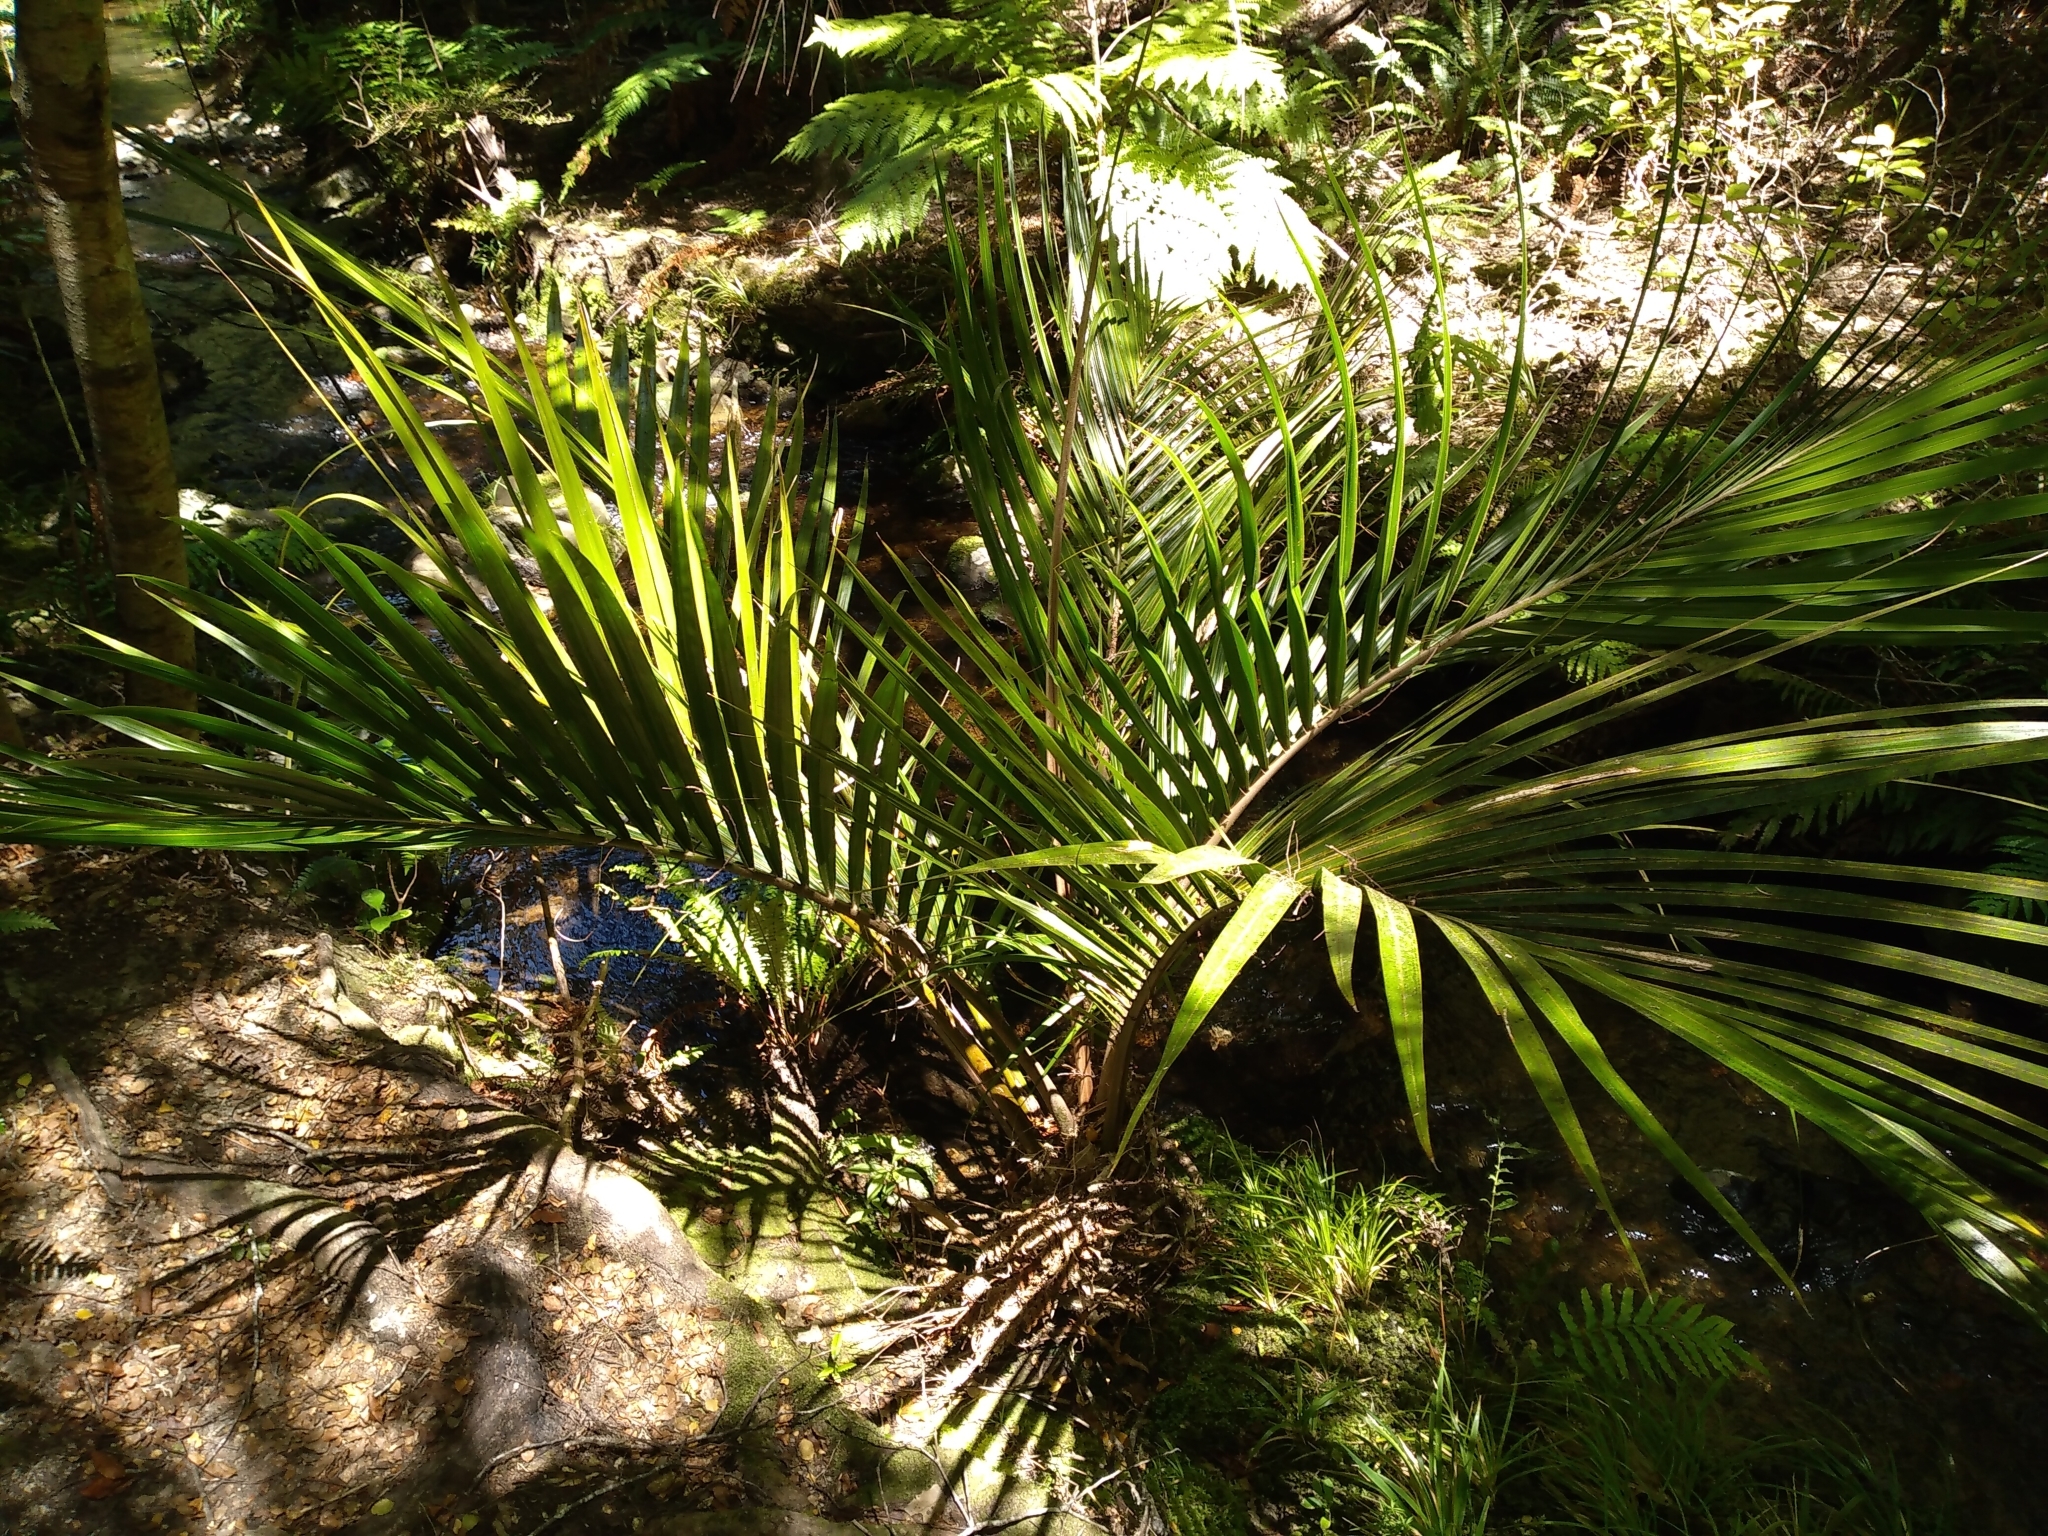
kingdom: Plantae
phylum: Tracheophyta
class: Liliopsida
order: Arecales
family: Arecaceae
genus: Rhopalostylis
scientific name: Rhopalostylis sapida
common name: Feather-duster palm
